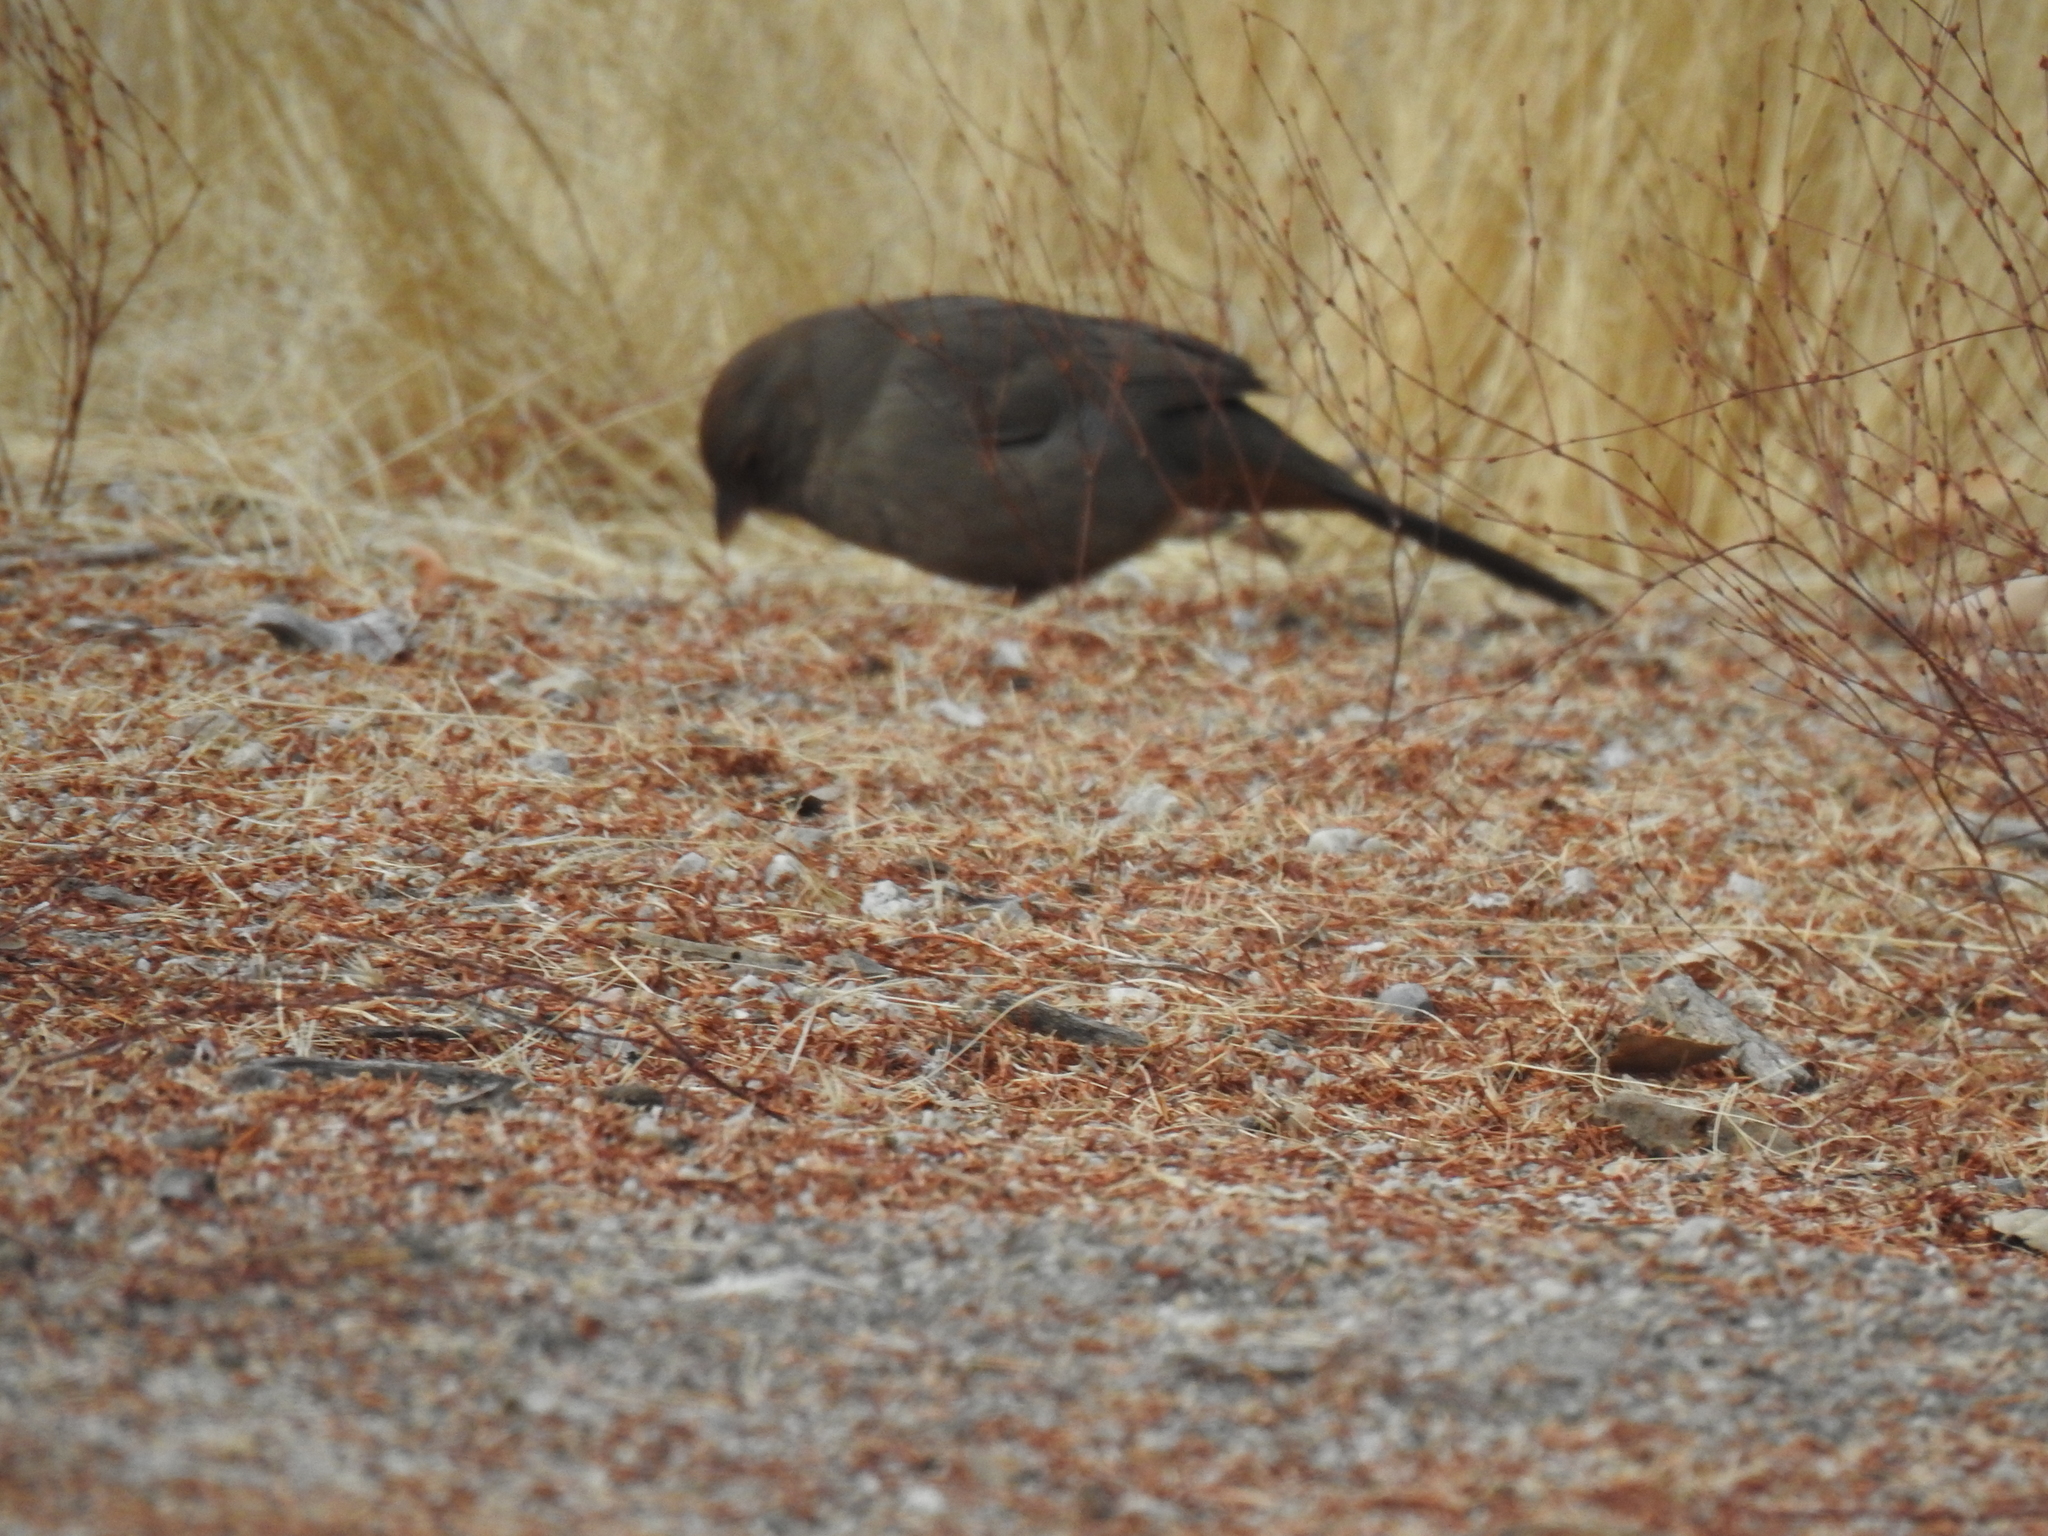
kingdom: Animalia
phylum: Chordata
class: Aves
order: Passeriformes
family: Passerellidae
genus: Melozone
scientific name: Melozone crissalis
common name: California towhee
